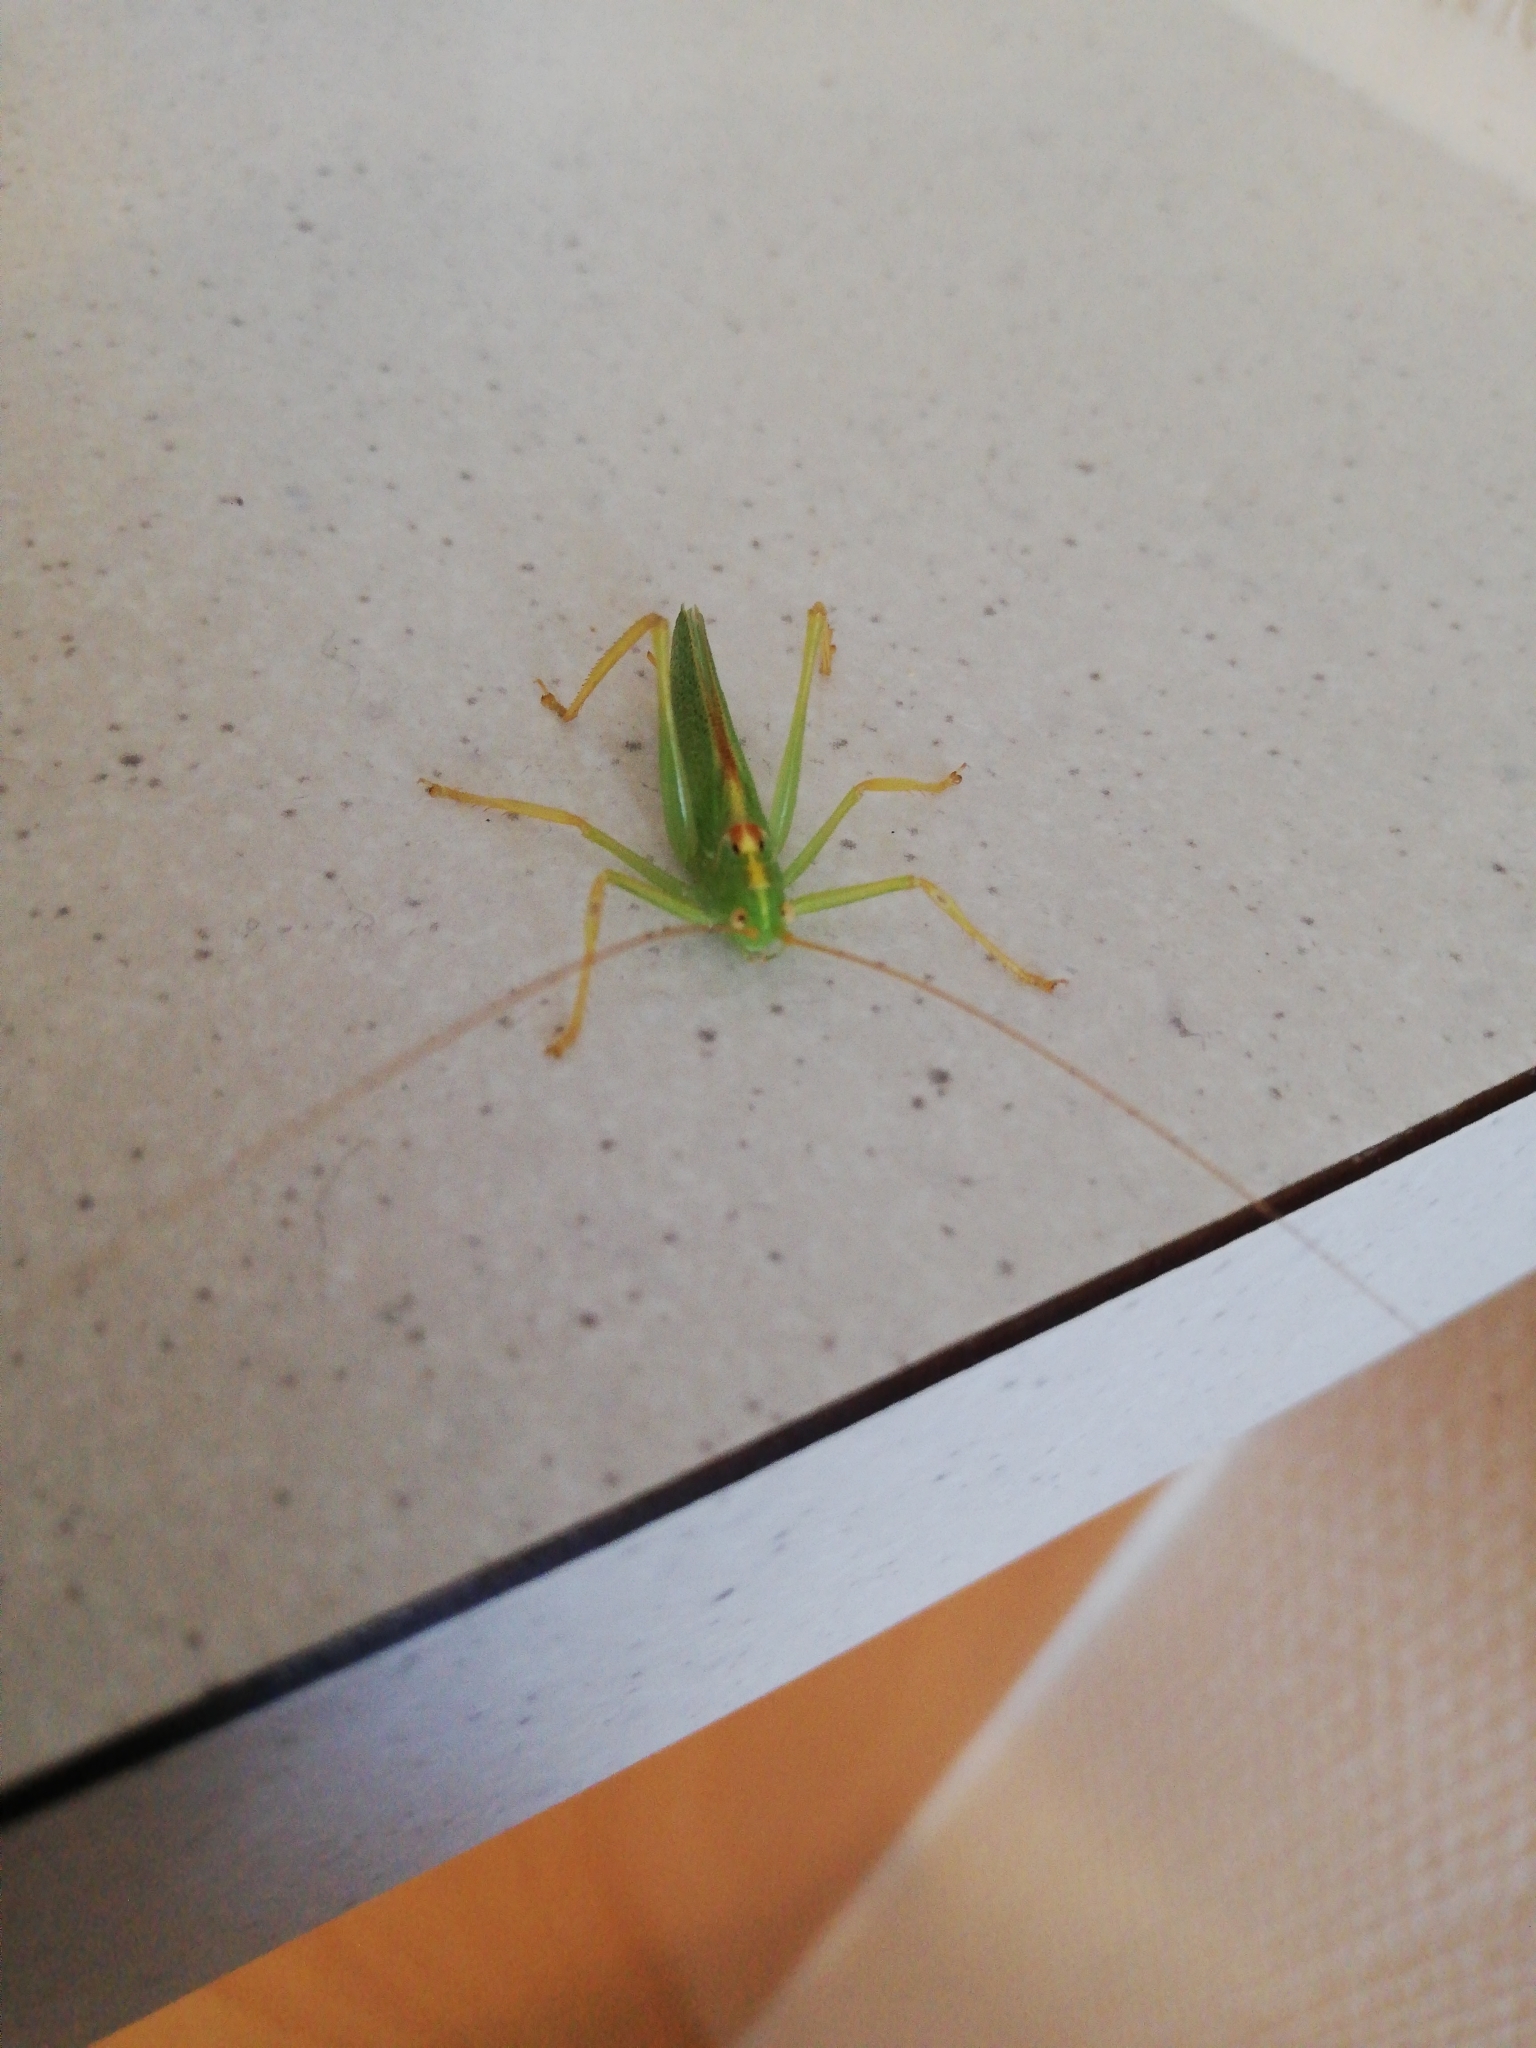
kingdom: Animalia
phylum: Arthropoda
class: Insecta
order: Orthoptera
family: Tettigoniidae
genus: Meconema
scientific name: Meconema thalassinum
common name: Oak bush-cricket
